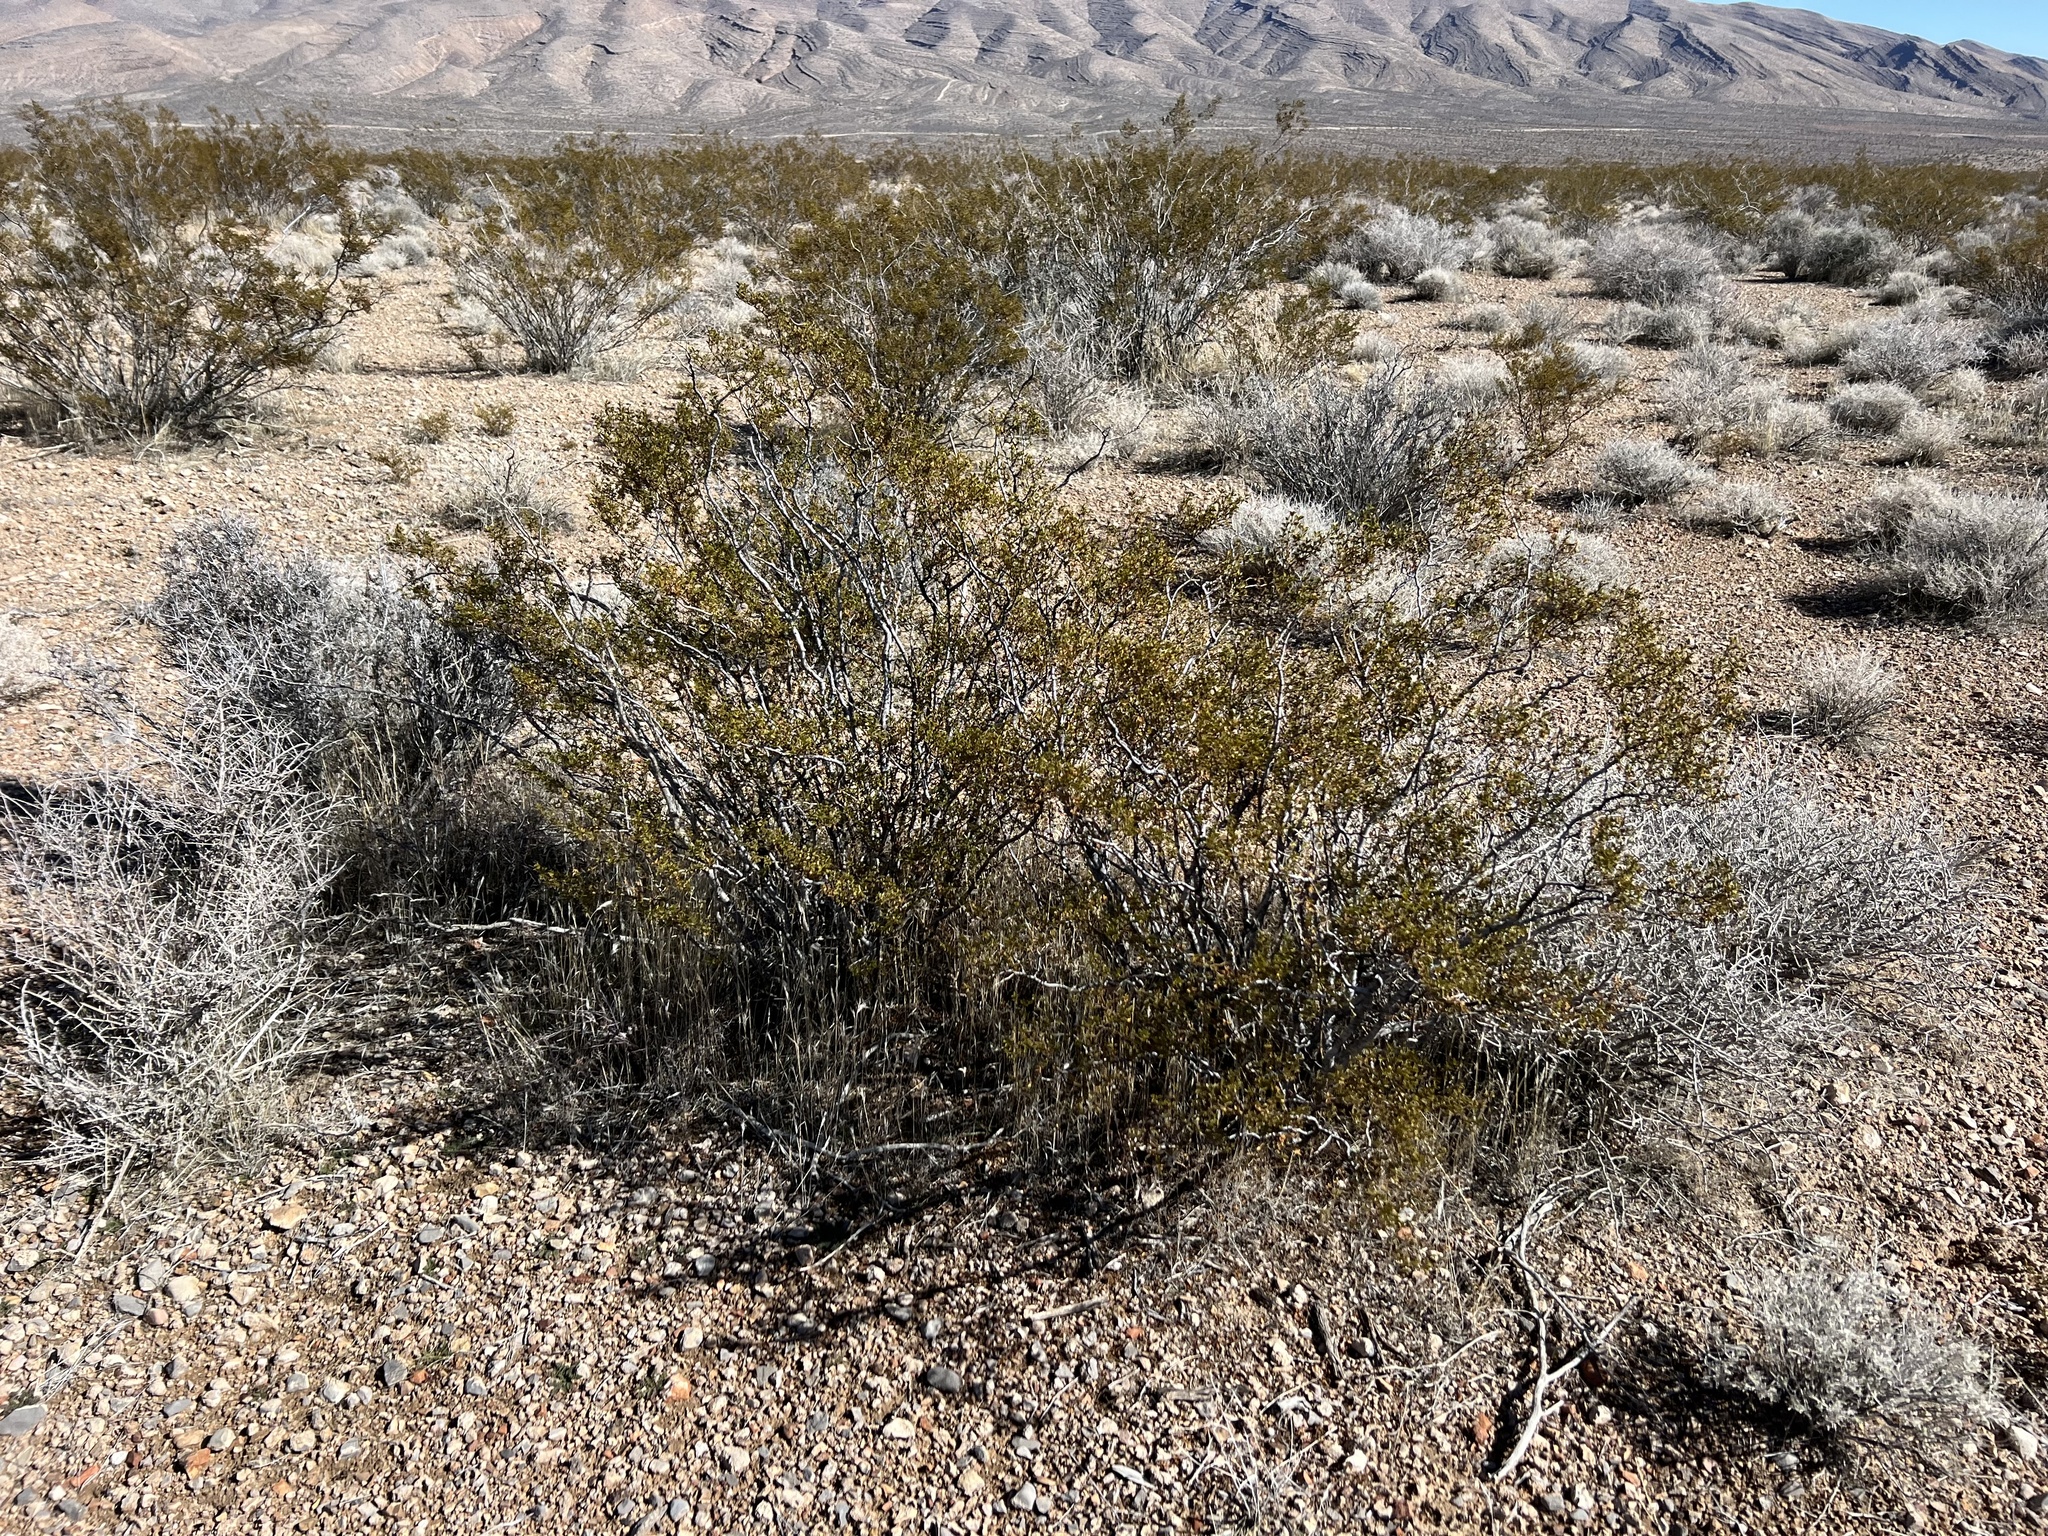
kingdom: Plantae
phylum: Tracheophyta
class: Magnoliopsida
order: Zygophyllales
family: Zygophyllaceae
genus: Larrea
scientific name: Larrea tridentata
